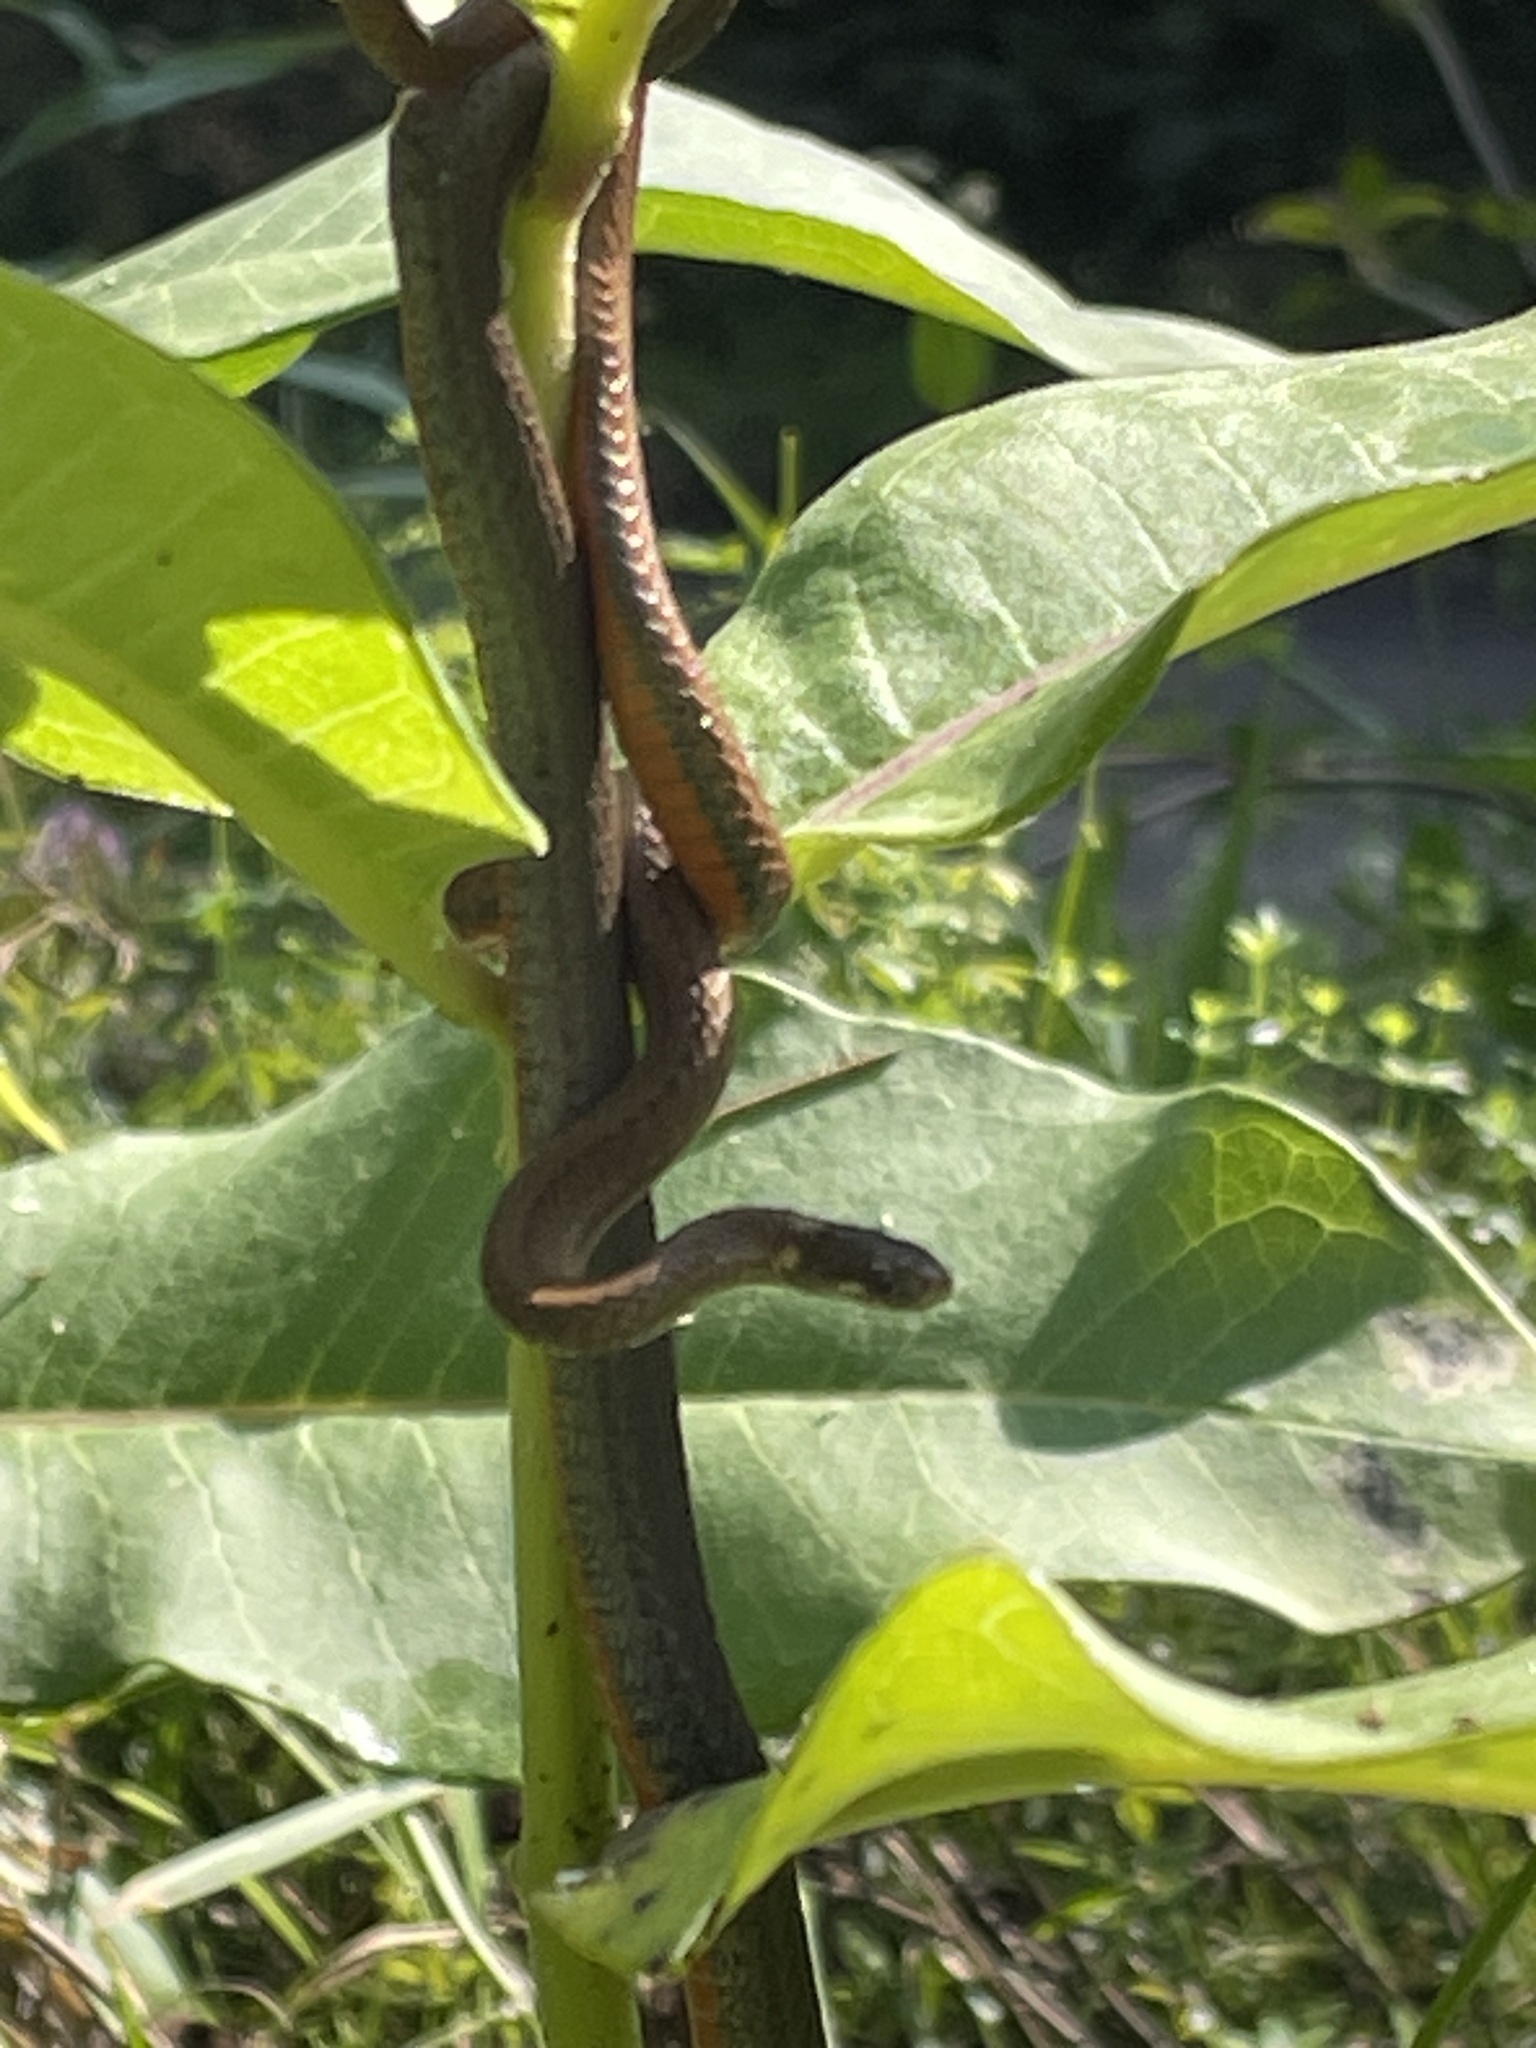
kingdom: Animalia
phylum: Chordata
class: Squamata
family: Colubridae
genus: Storeria
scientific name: Storeria occipitomaculata
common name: Redbelly snake
